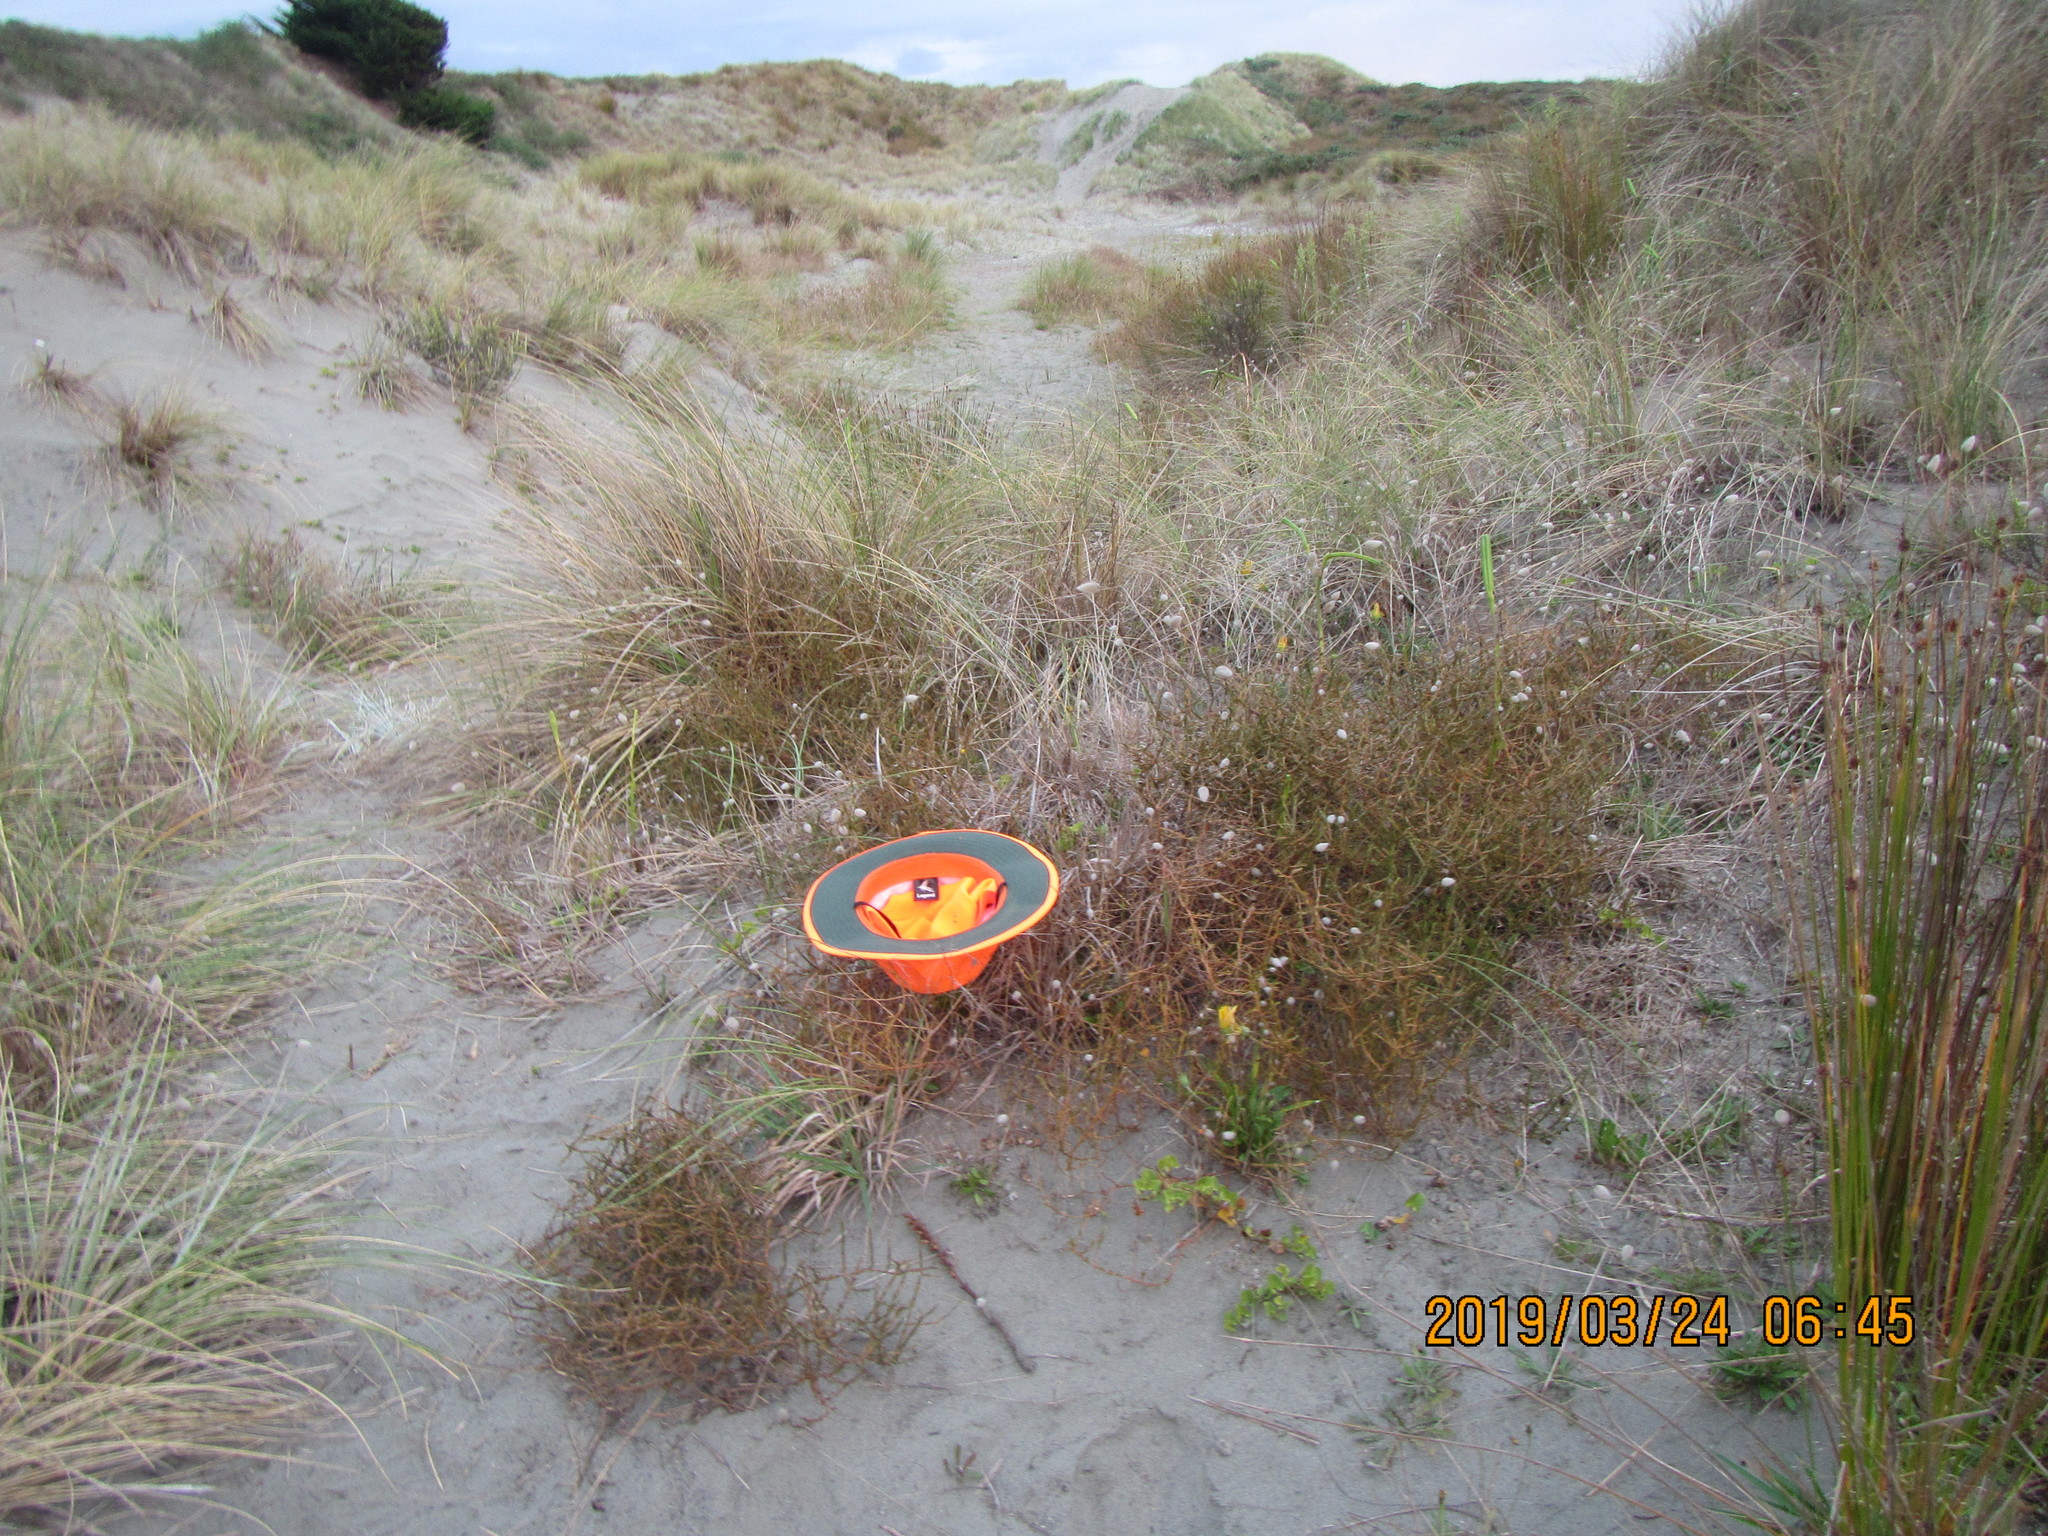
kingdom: Plantae
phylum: Tracheophyta
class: Magnoliopsida
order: Gentianales
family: Rubiaceae
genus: Coprosma
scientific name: Coprosma acerosa
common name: Sand coprosma
